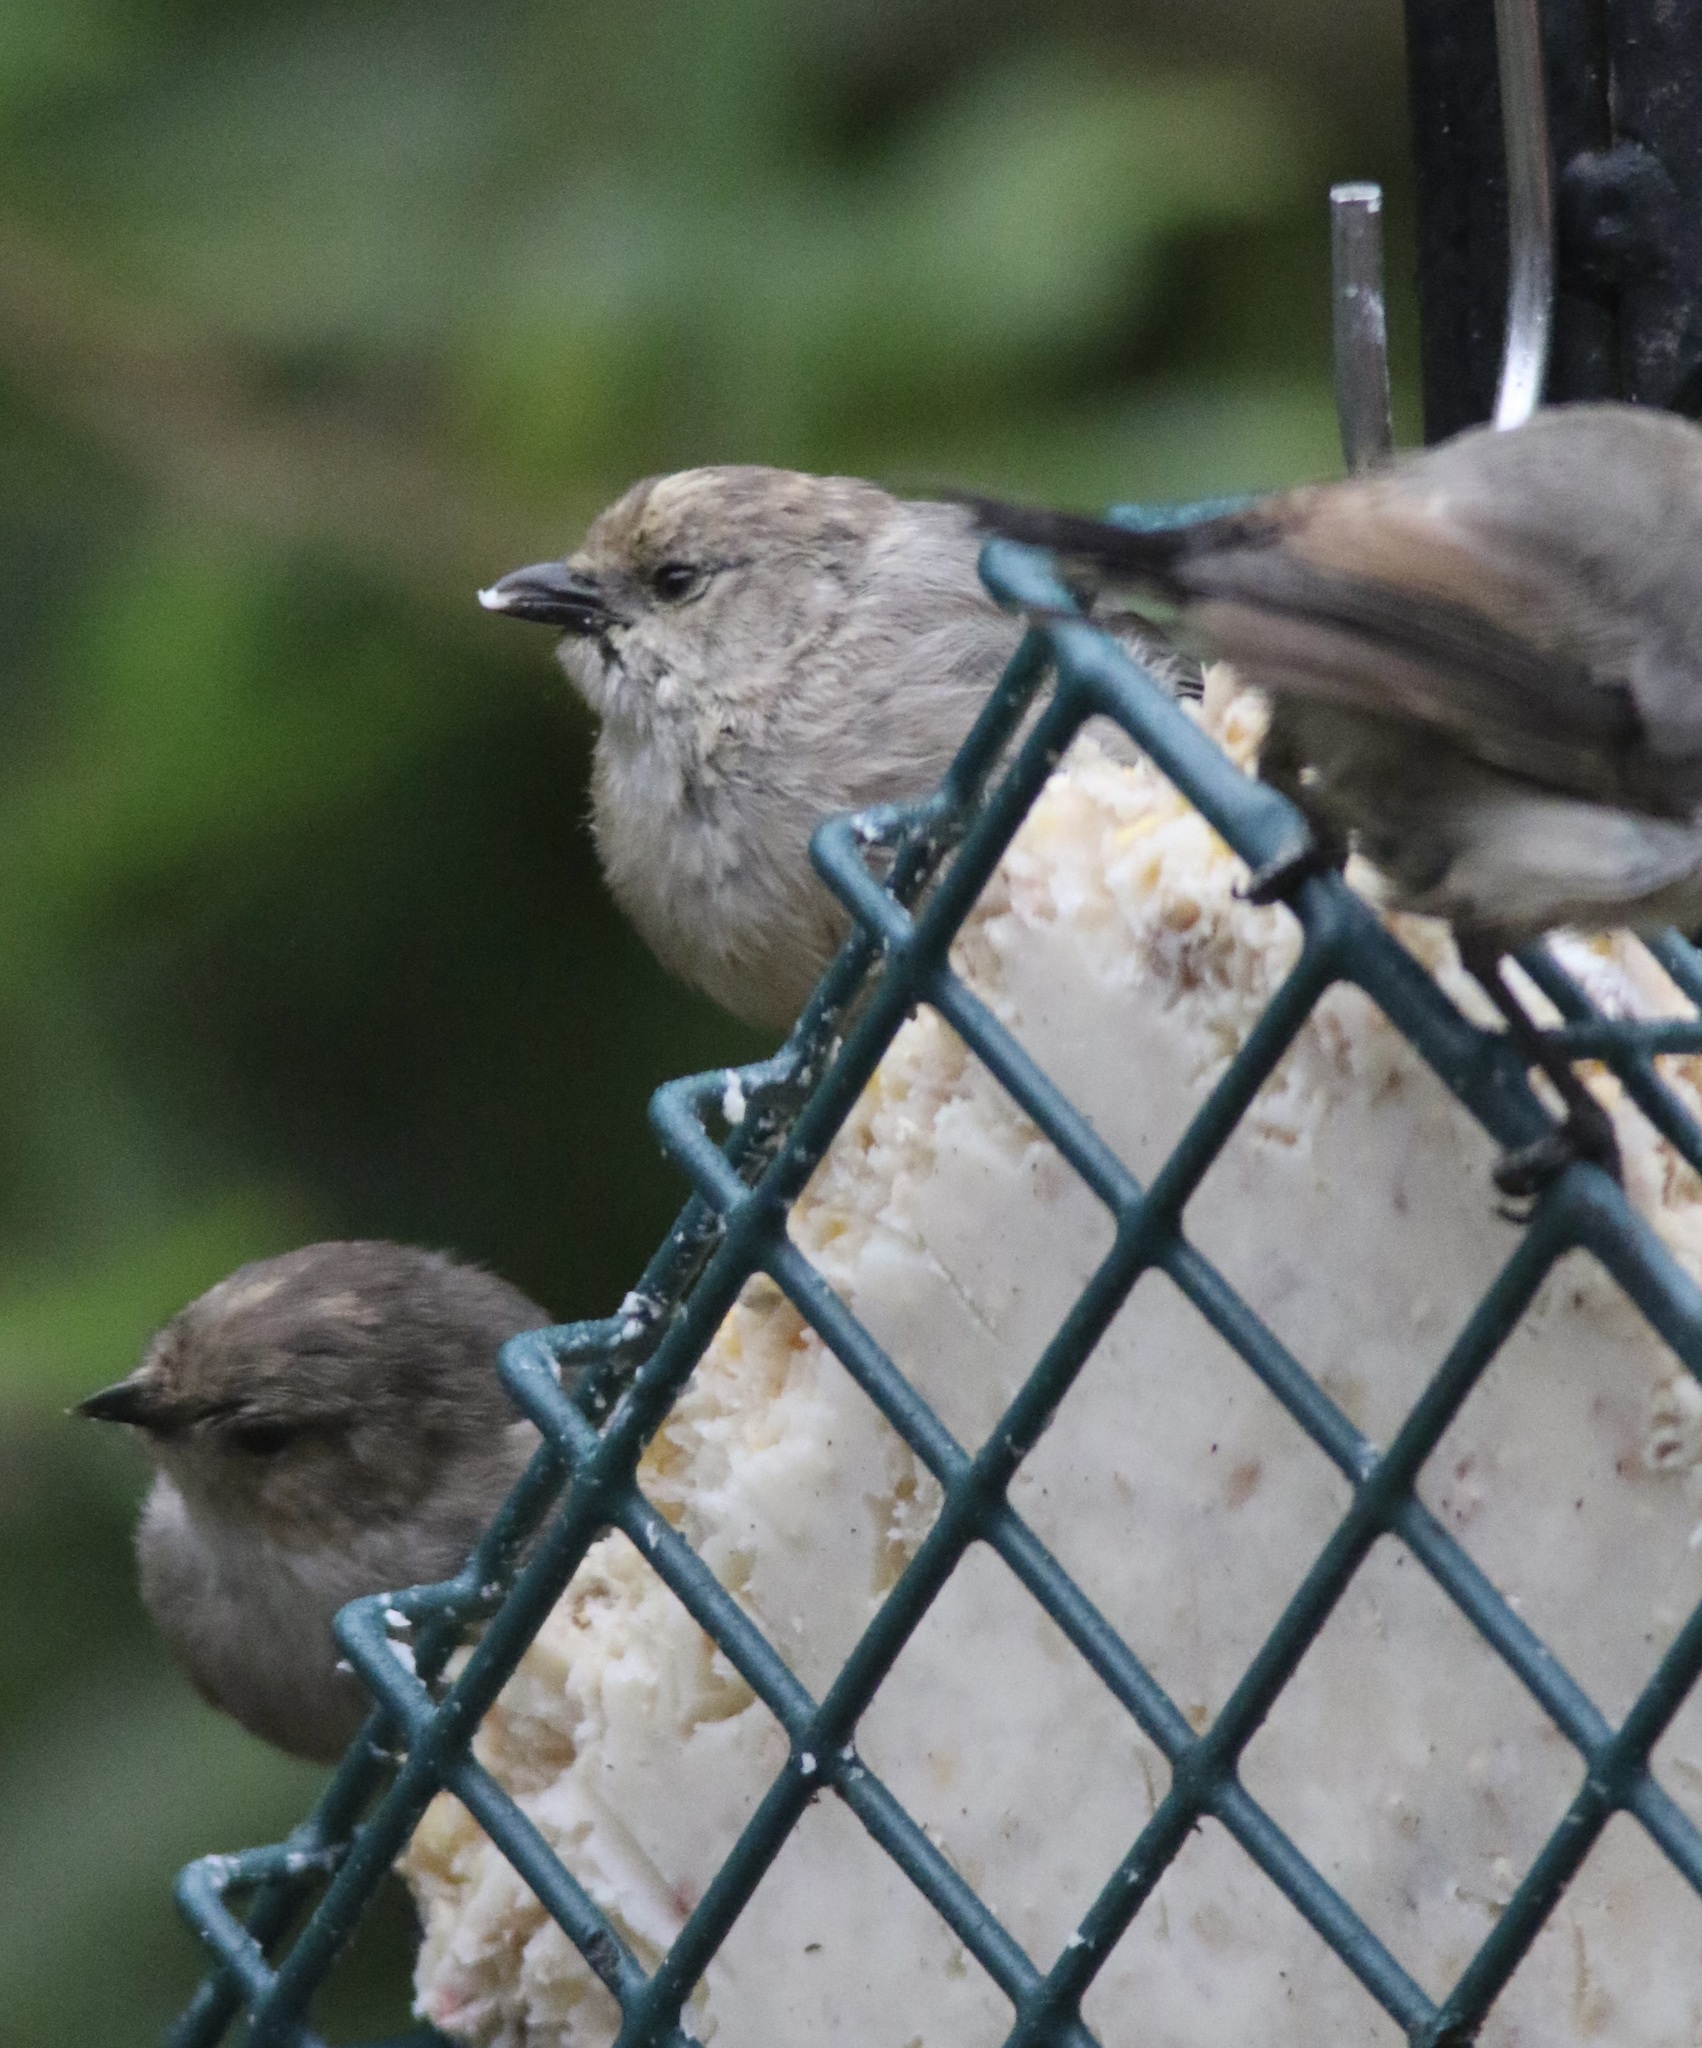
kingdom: Animalia
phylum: Chordata
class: Aves
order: Passeriformes
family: Aegithalidae
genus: Psaltriparus
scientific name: Psaltriparus minimus
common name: American bushtit
